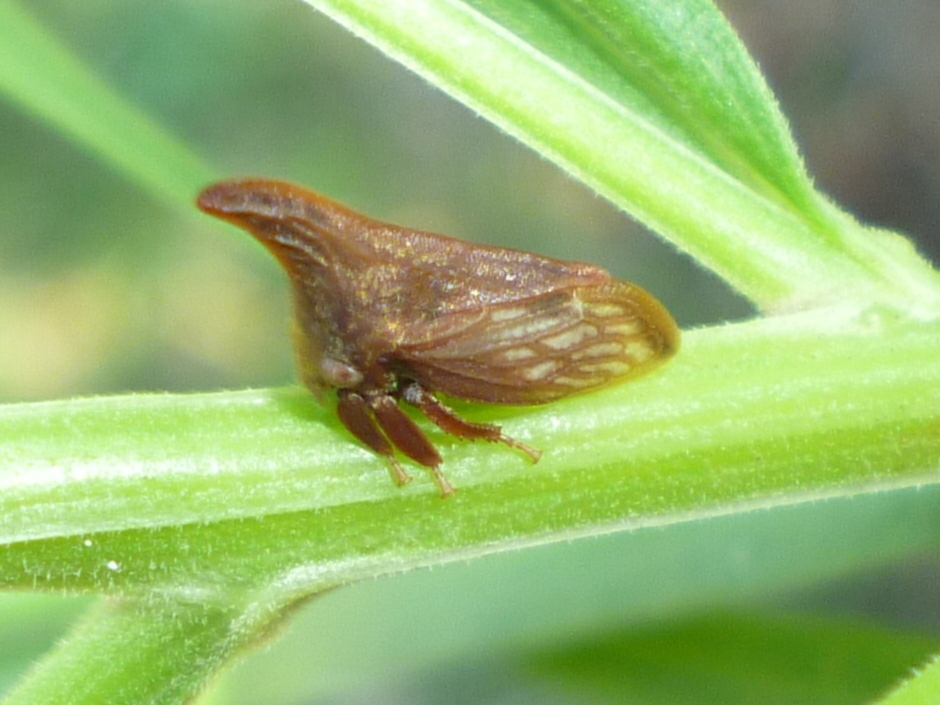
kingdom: Animalia
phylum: Arthropoda
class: Insecta
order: Hemiptera
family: Membracidae
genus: Enchenopa
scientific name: Enchenopa latipes
